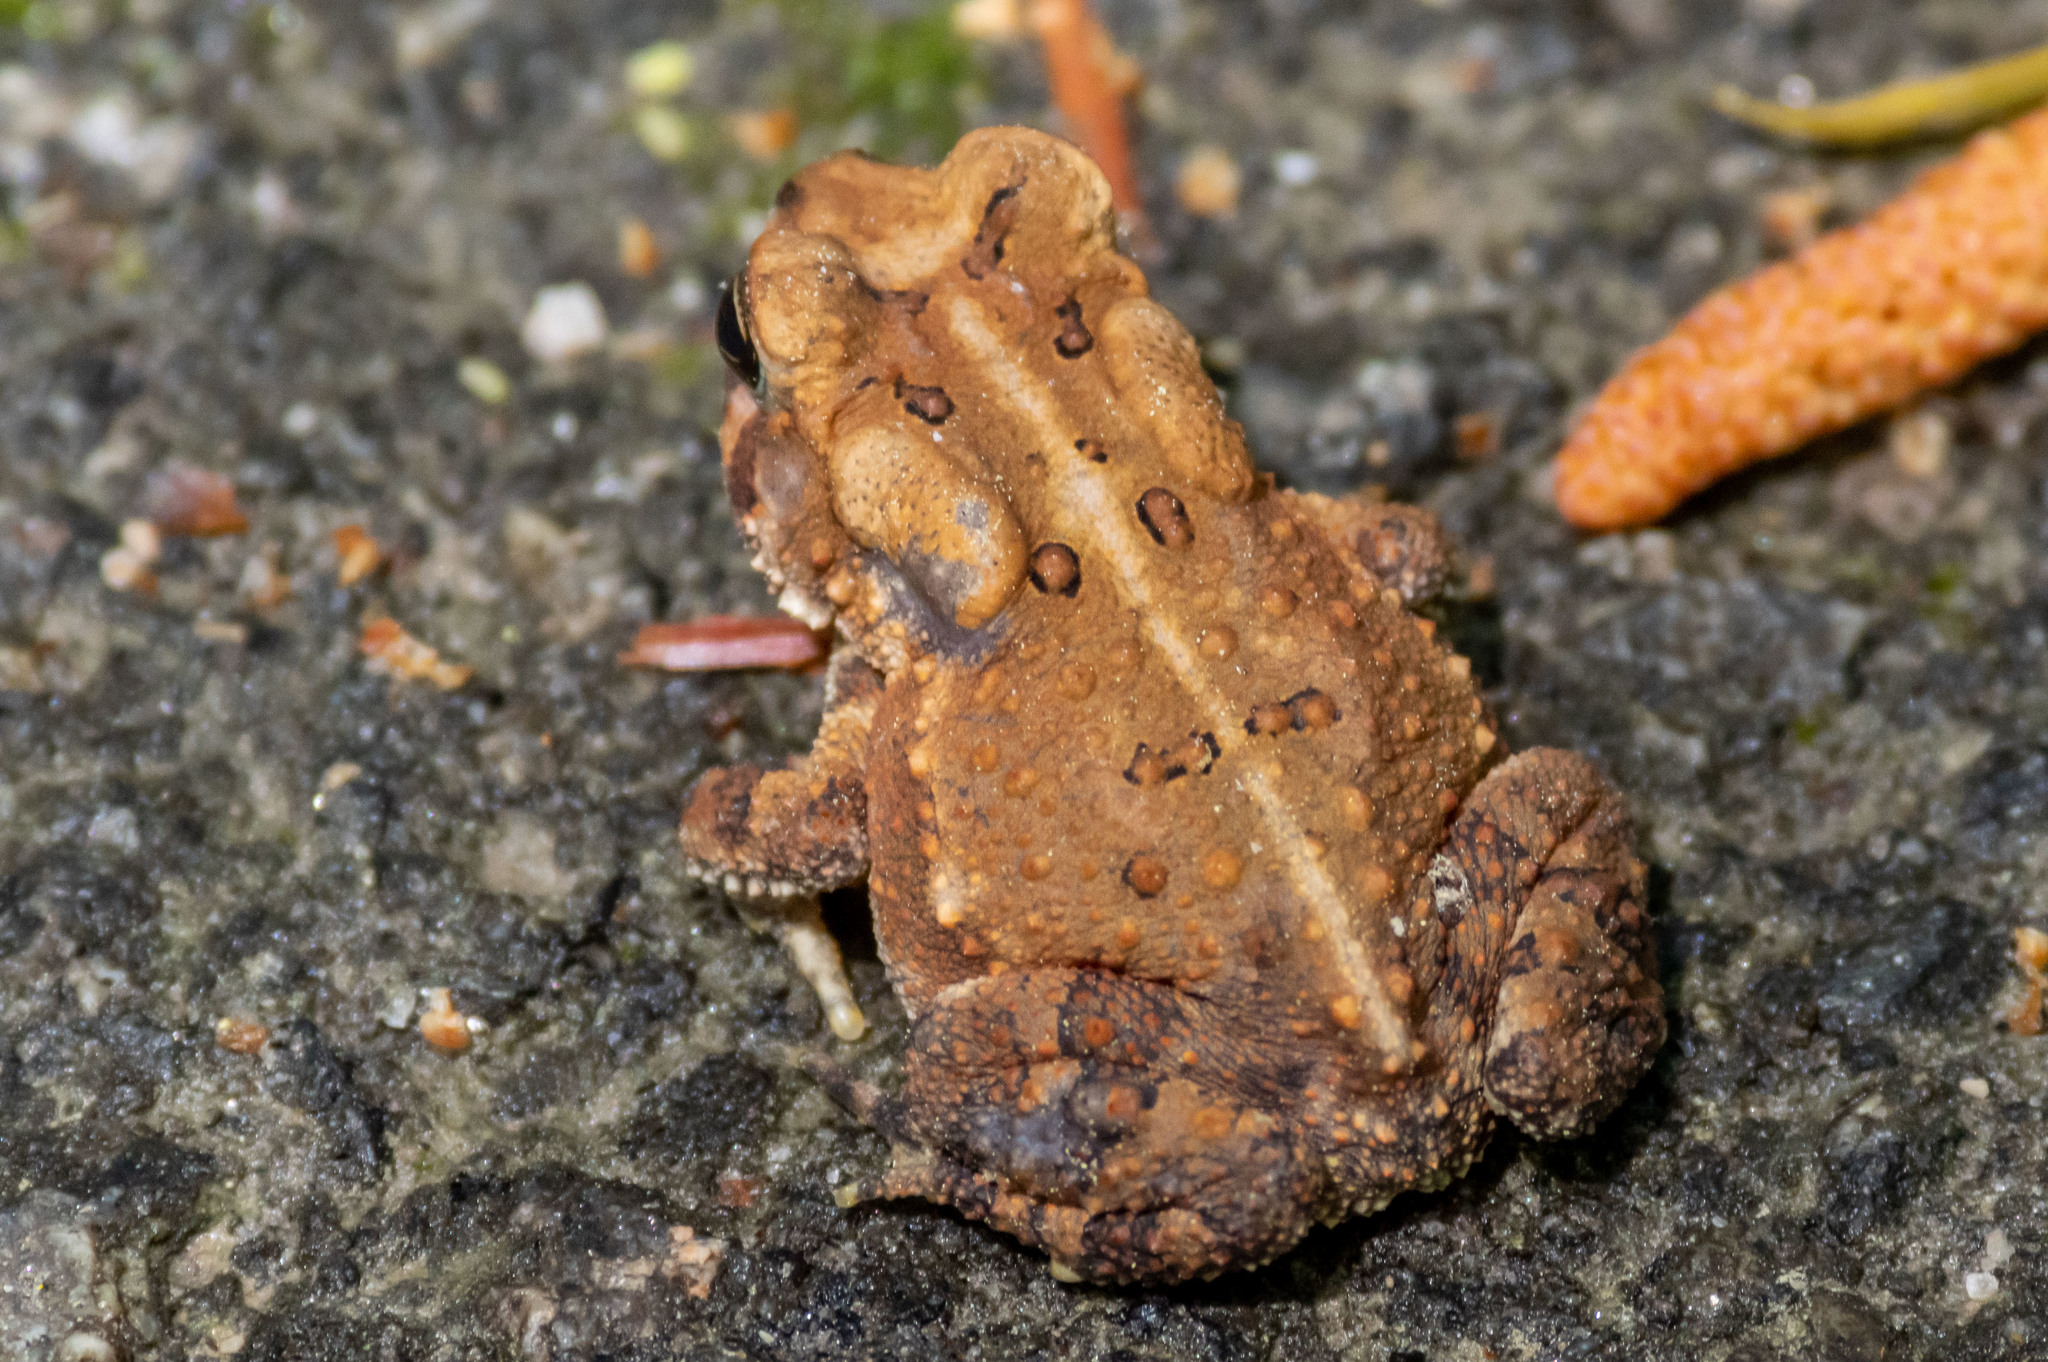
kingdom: Animalia
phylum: Chordata
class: Amphibia
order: Anura
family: Bufonidae
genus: Anaxyrus
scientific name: Anaxyrus americanus
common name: American toad
